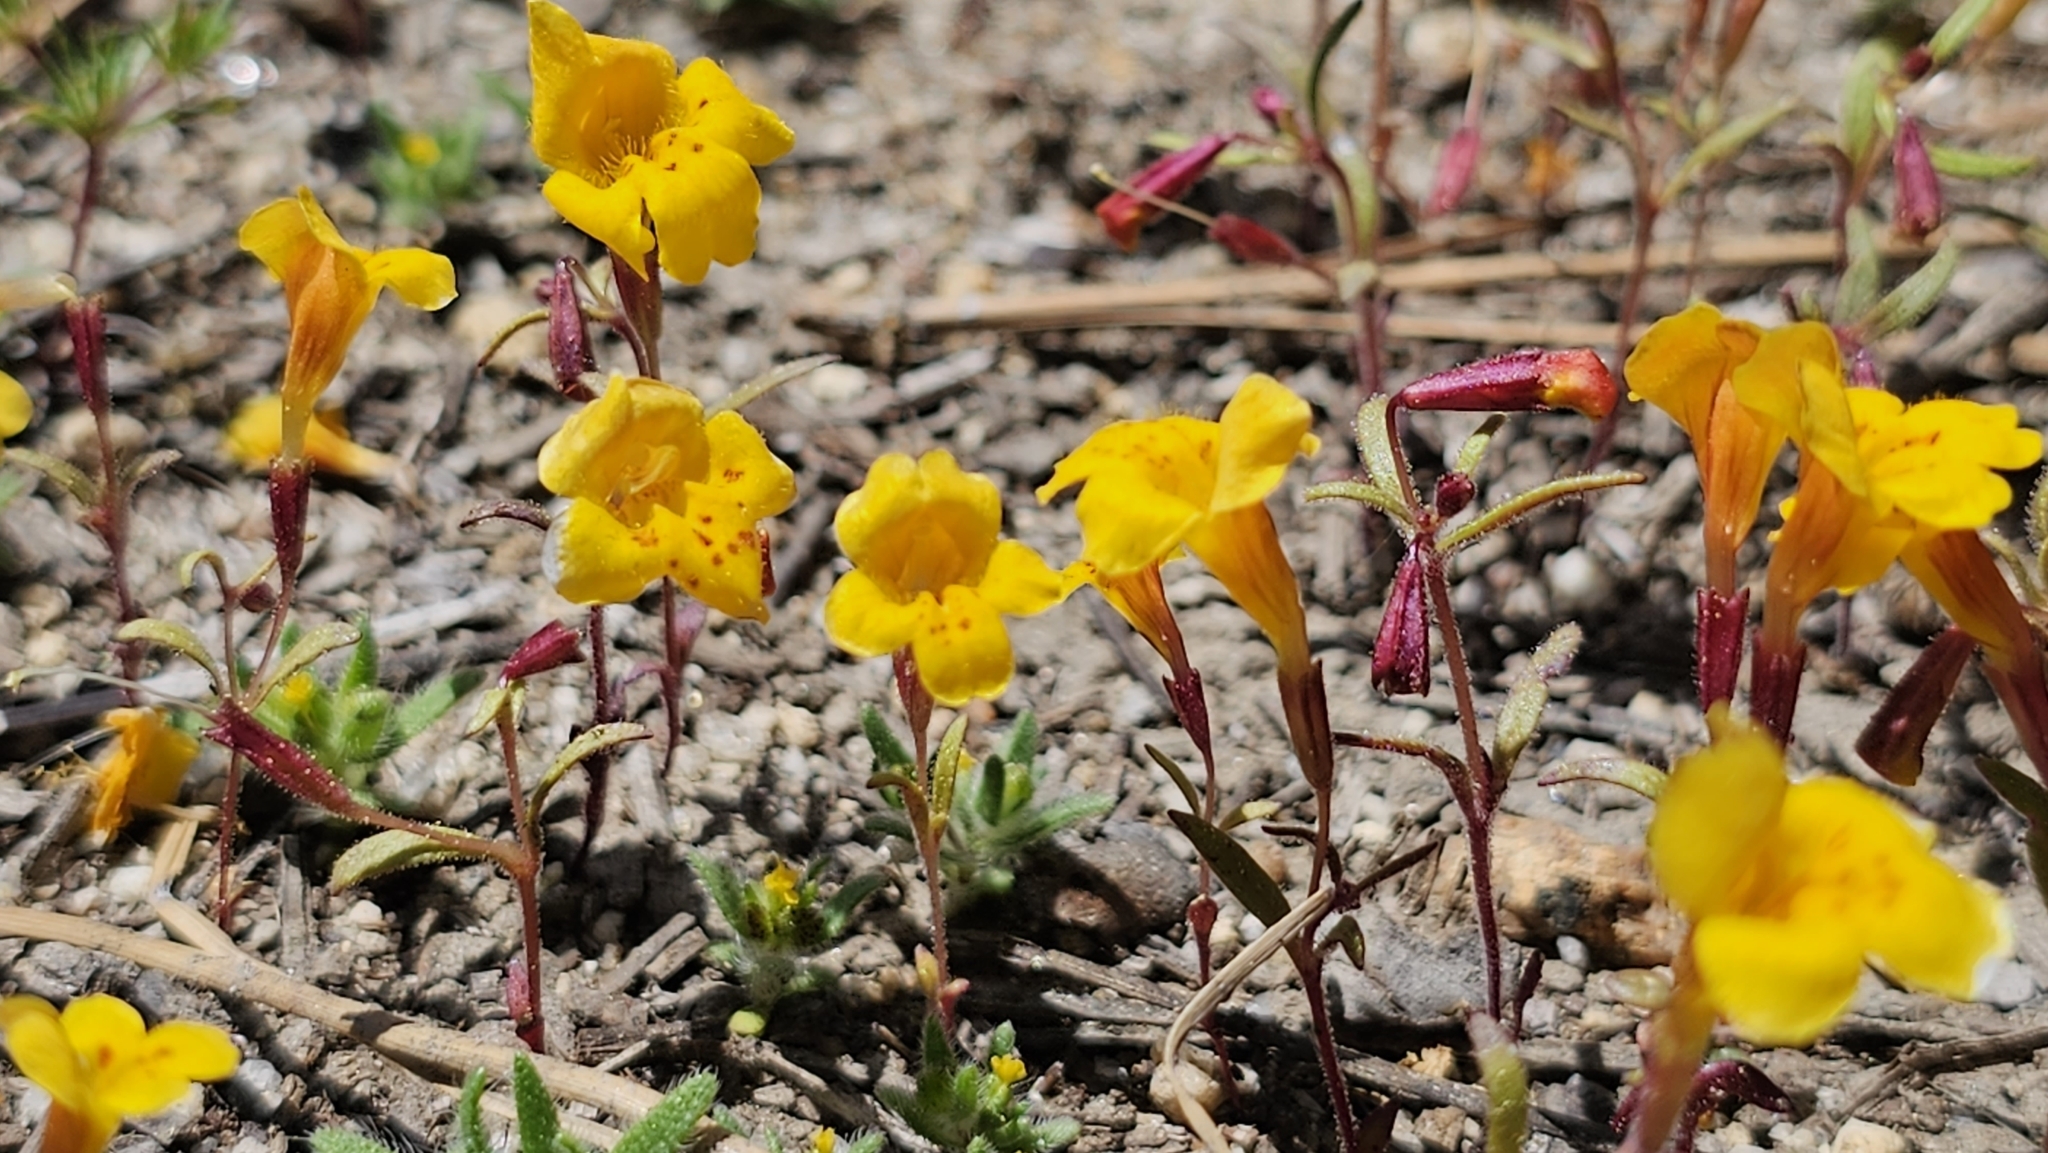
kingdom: Plantae
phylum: Tracheophyta
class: Magnoliopsida
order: Lamiales
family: Phrymaceae
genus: Erythranthe
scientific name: Erythranthe montioides
